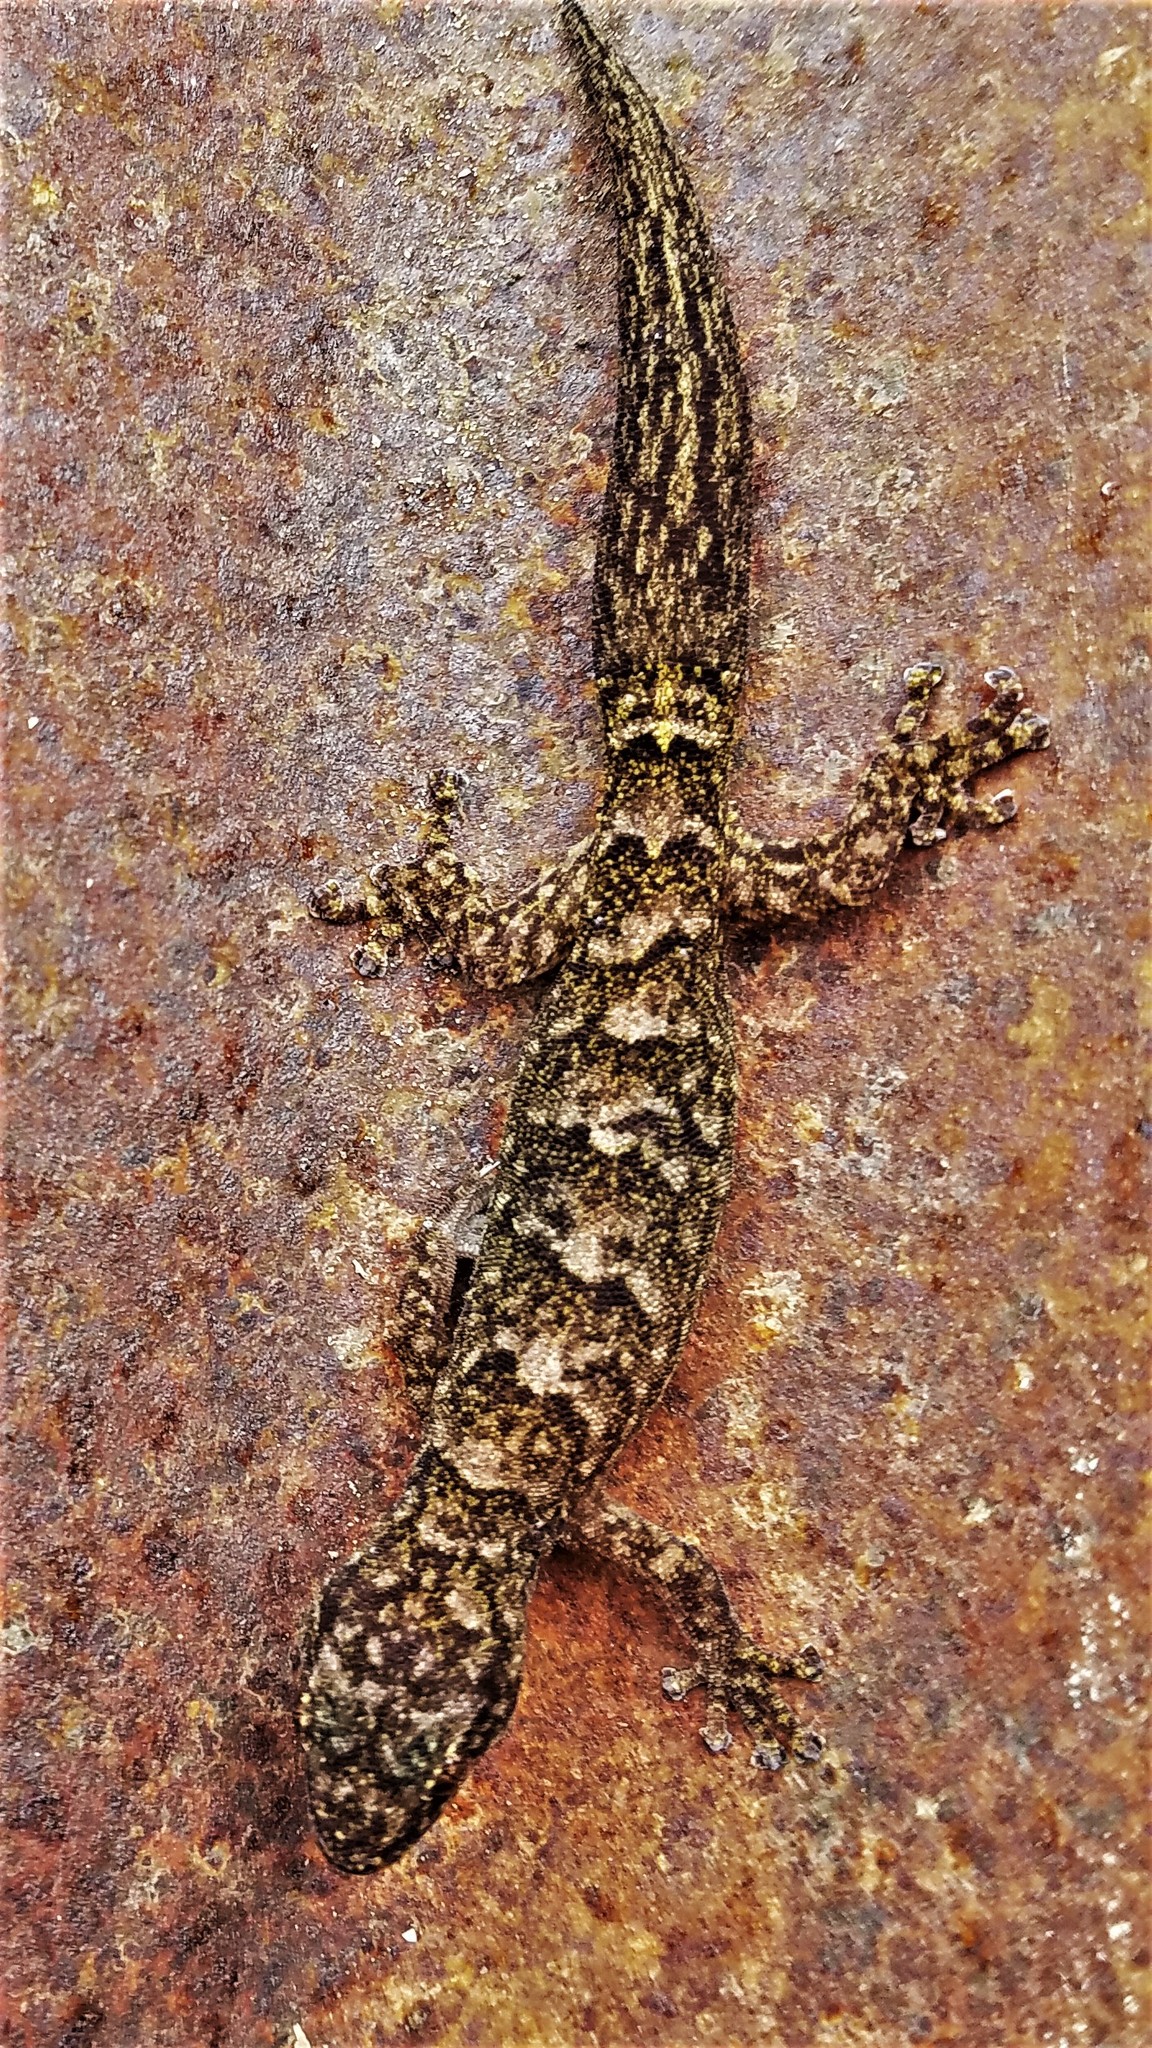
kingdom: Animalia
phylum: Chordata
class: Squamata
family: Gekkonidae
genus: Christinus
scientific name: Christinus marmoratus
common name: Marbled gecko
